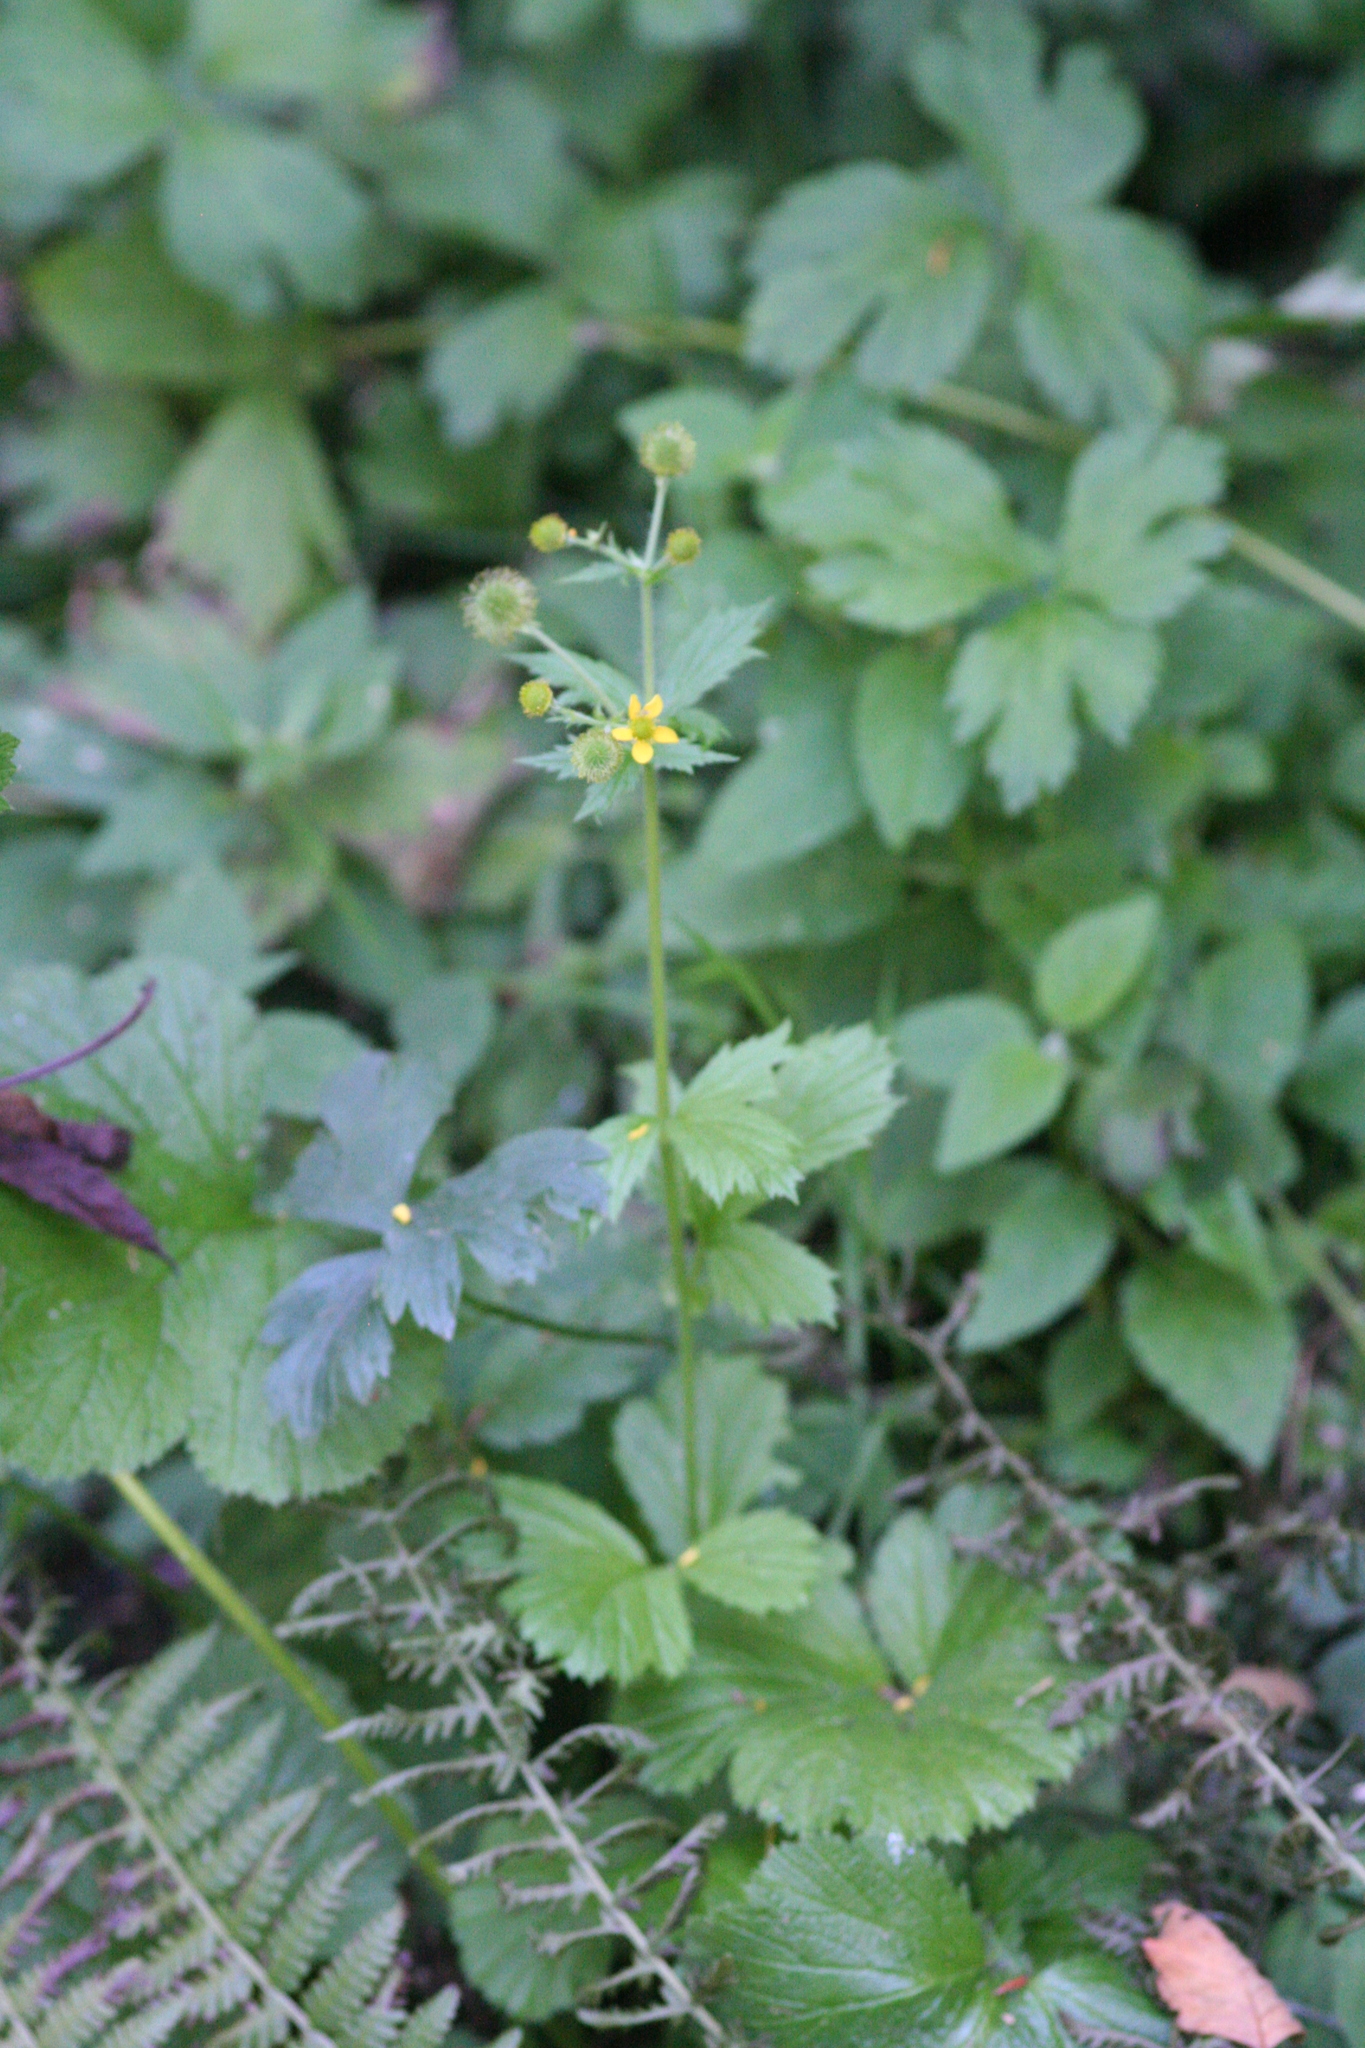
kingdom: Plantae
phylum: Tracheophyta
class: Magnoliopsida
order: Rosales
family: Rosaceae
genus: Geum
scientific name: Geum macrophyllum
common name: Large-leaved avens
